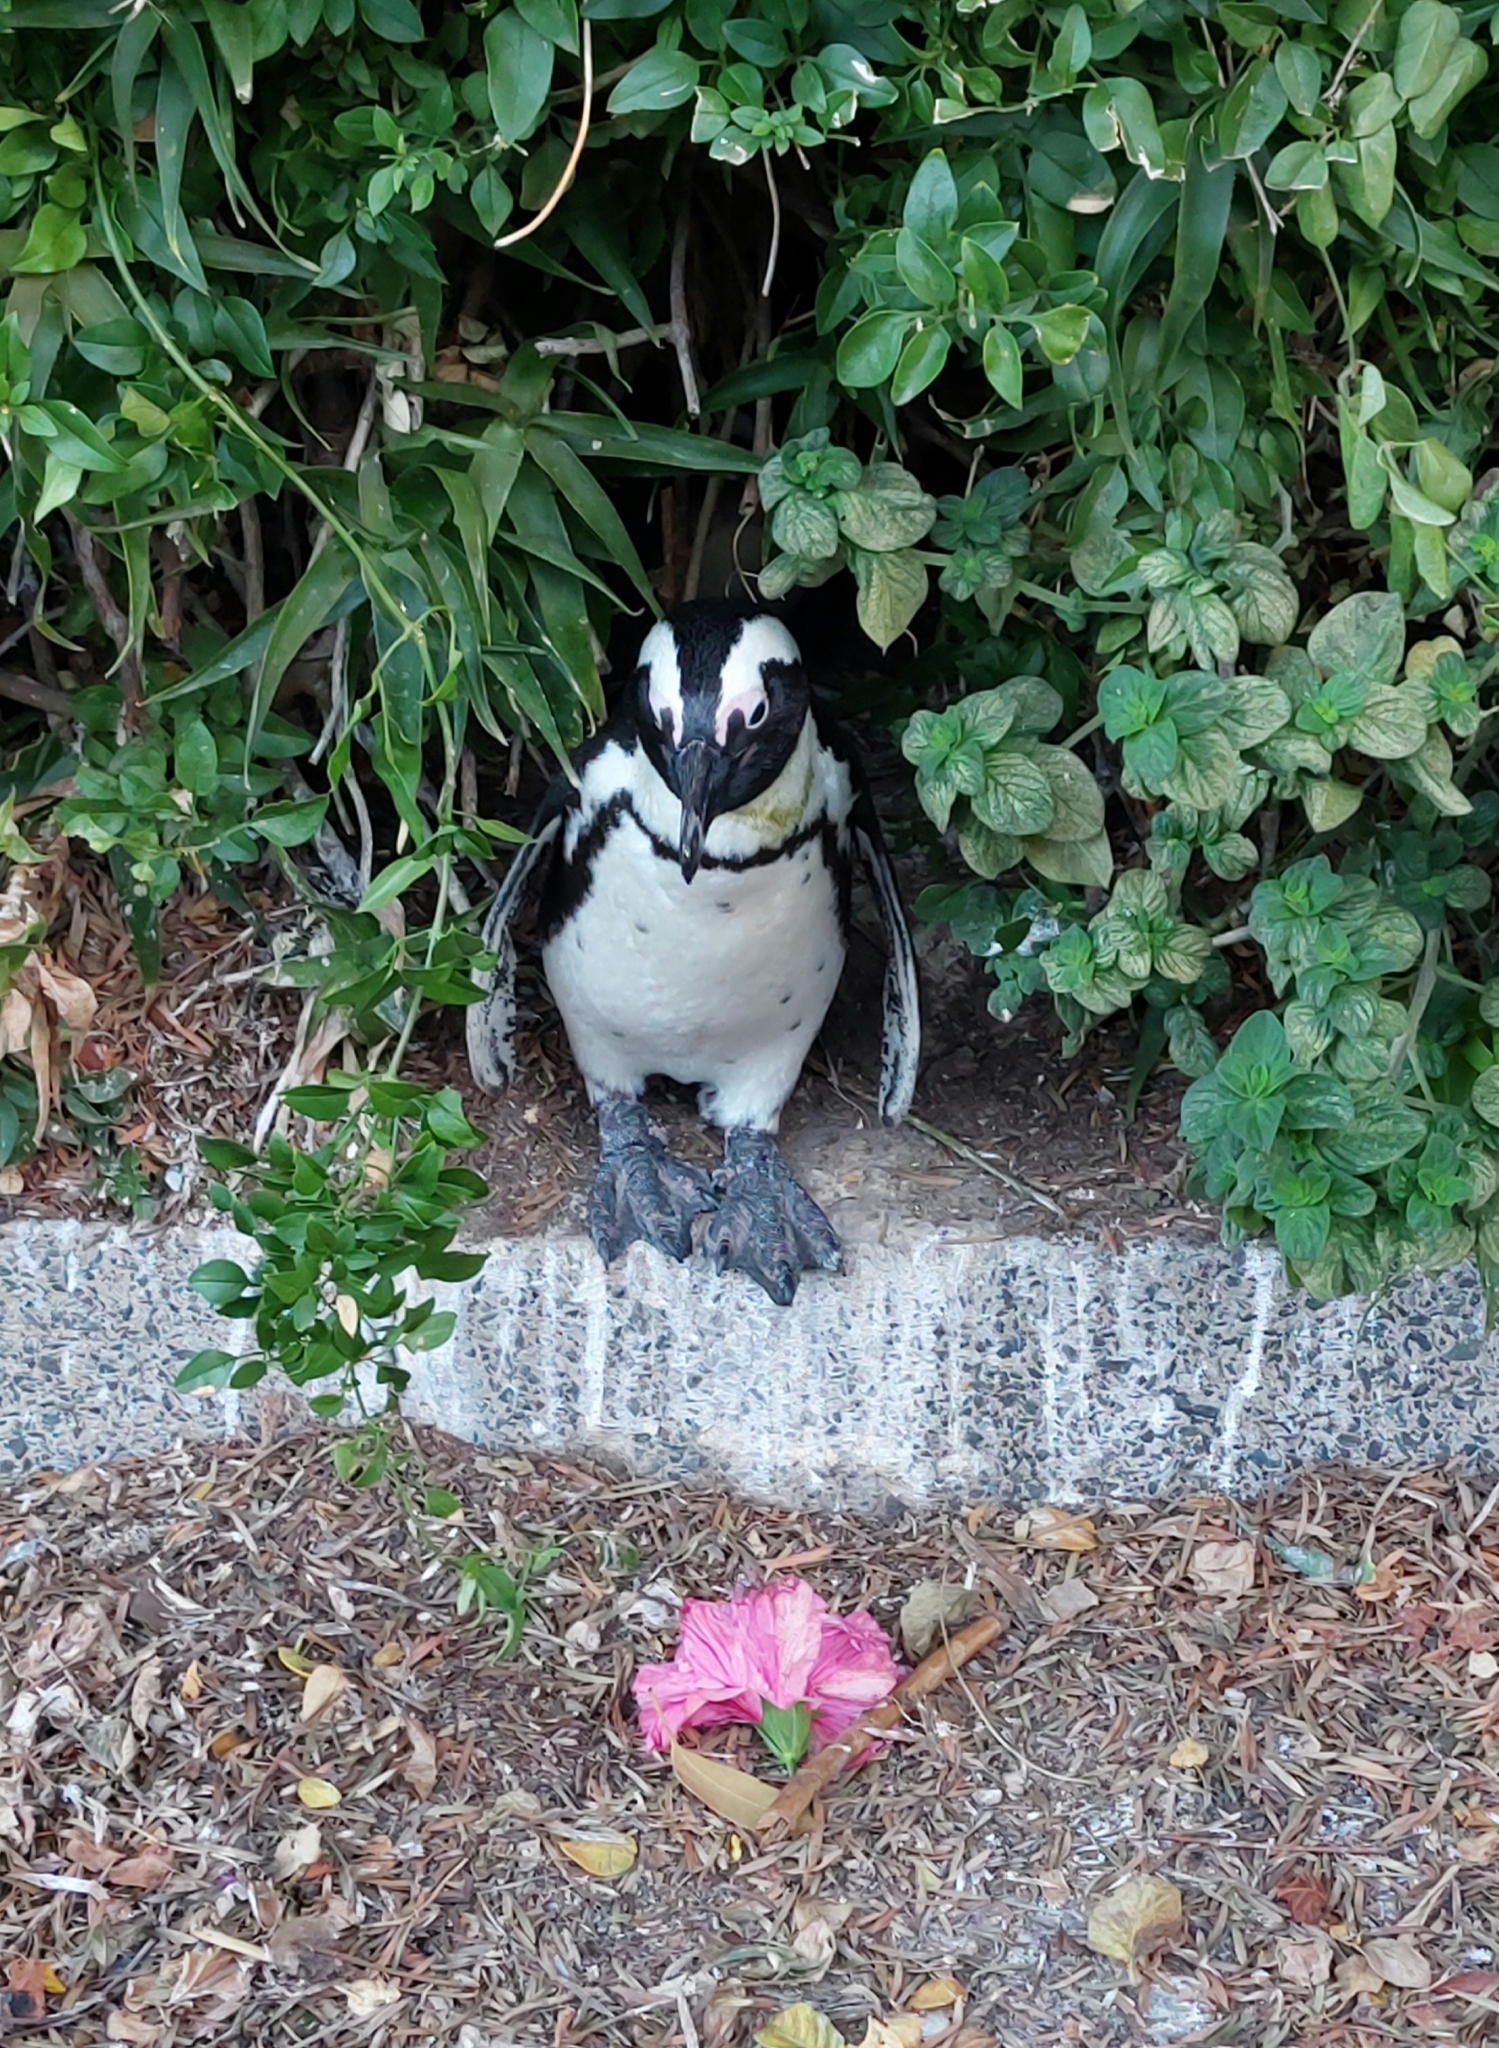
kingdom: Animalia
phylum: Chordata
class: Aves
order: Sphenisciformes
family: Spheniscidae
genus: Spheniscus
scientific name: Spheniscus demersus
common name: African penguin
